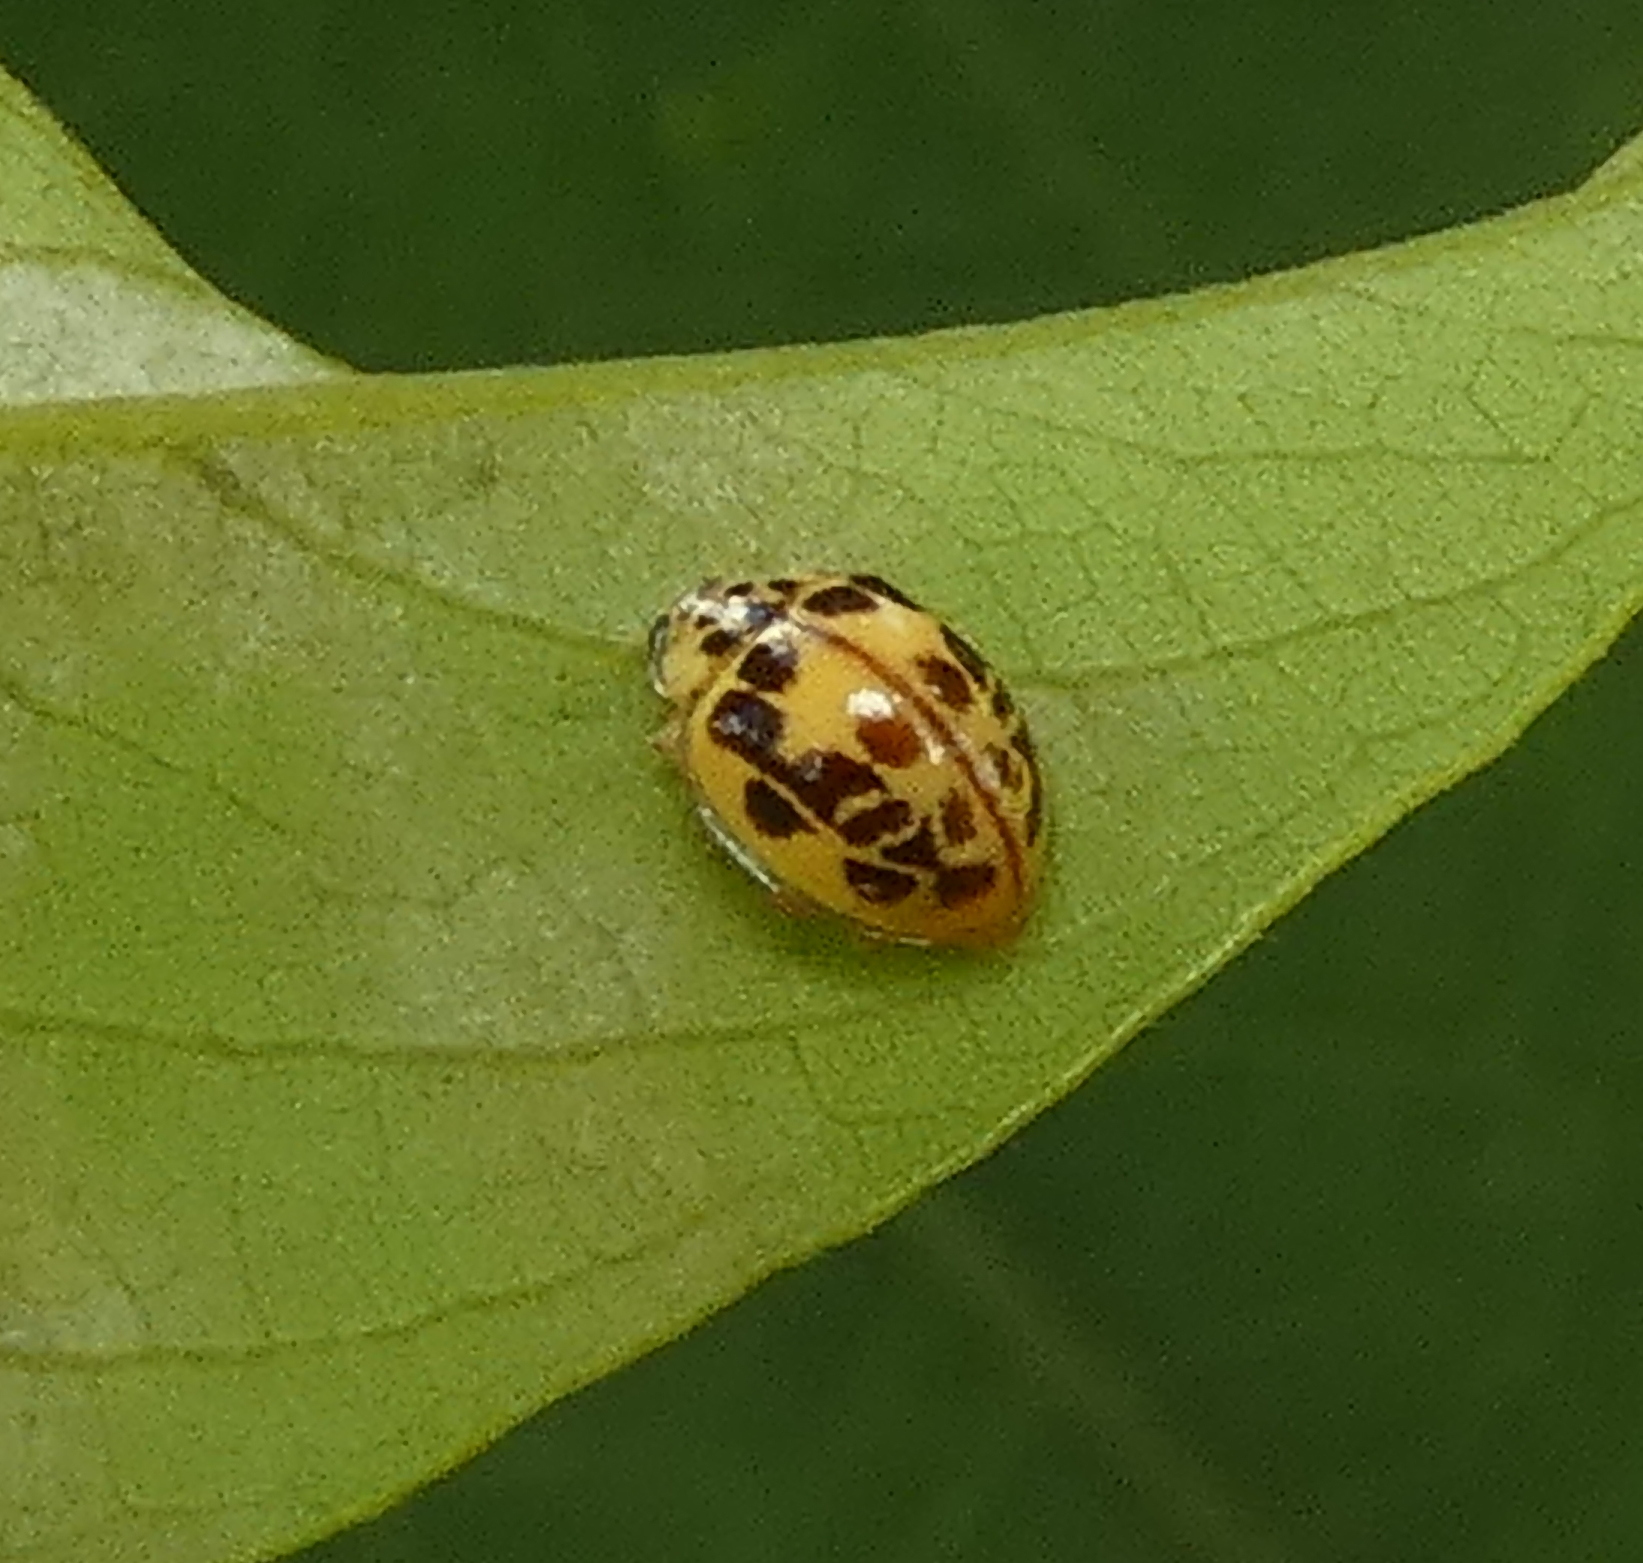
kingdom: Animalia
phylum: Arthropoda
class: Insecta
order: Coleoptera
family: Coccinellidae
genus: Psyllobora
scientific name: Psyllobora confluens
